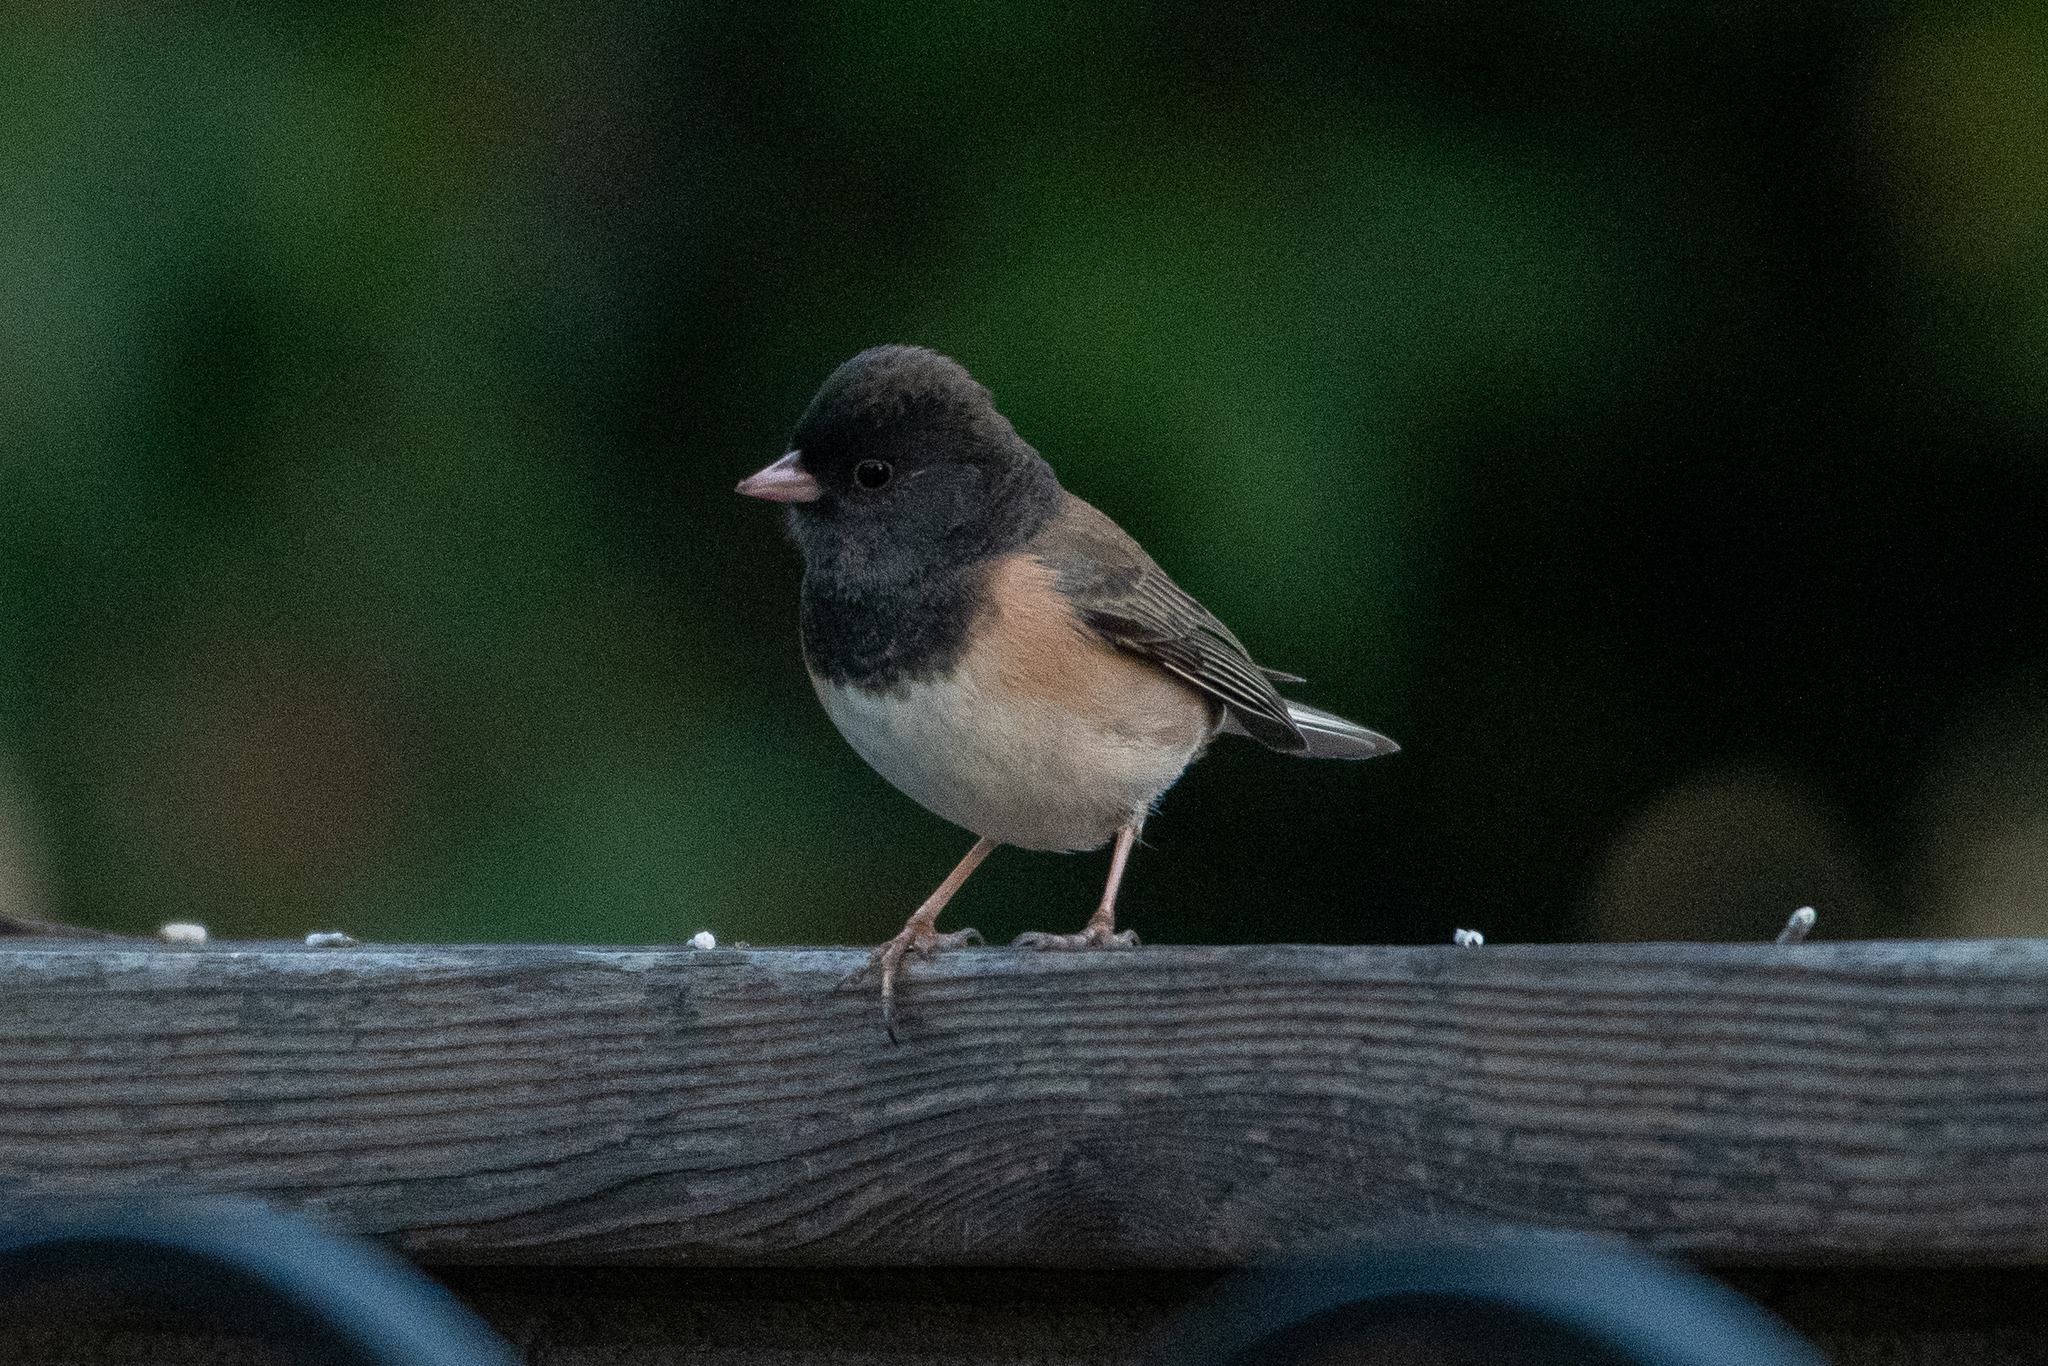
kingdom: Animalia
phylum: Chordata
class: Aves
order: Passeriformes
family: Passerellidae
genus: Junco
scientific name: Junco hyemalis
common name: Dark-eyed junco
